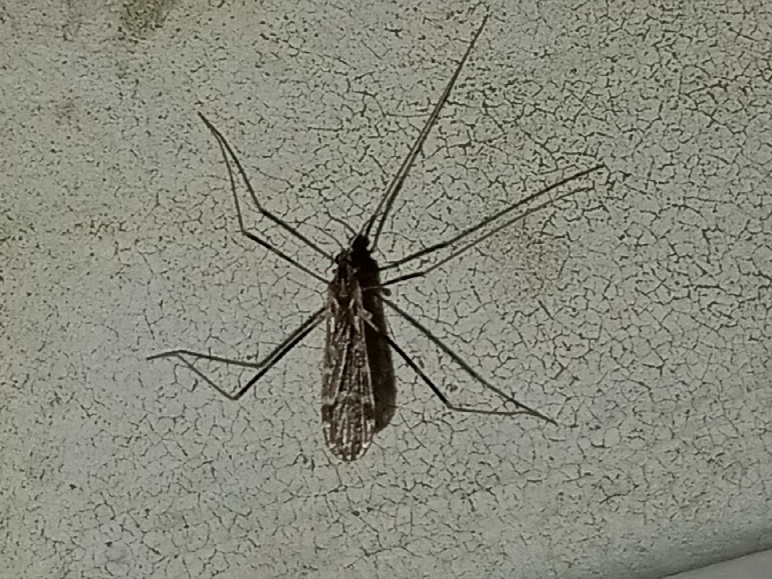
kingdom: Animalia
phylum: Arthropoda
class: Insecta
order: Diptera
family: Limoniidae
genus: Erioptera
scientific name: Erioptera caliptera
